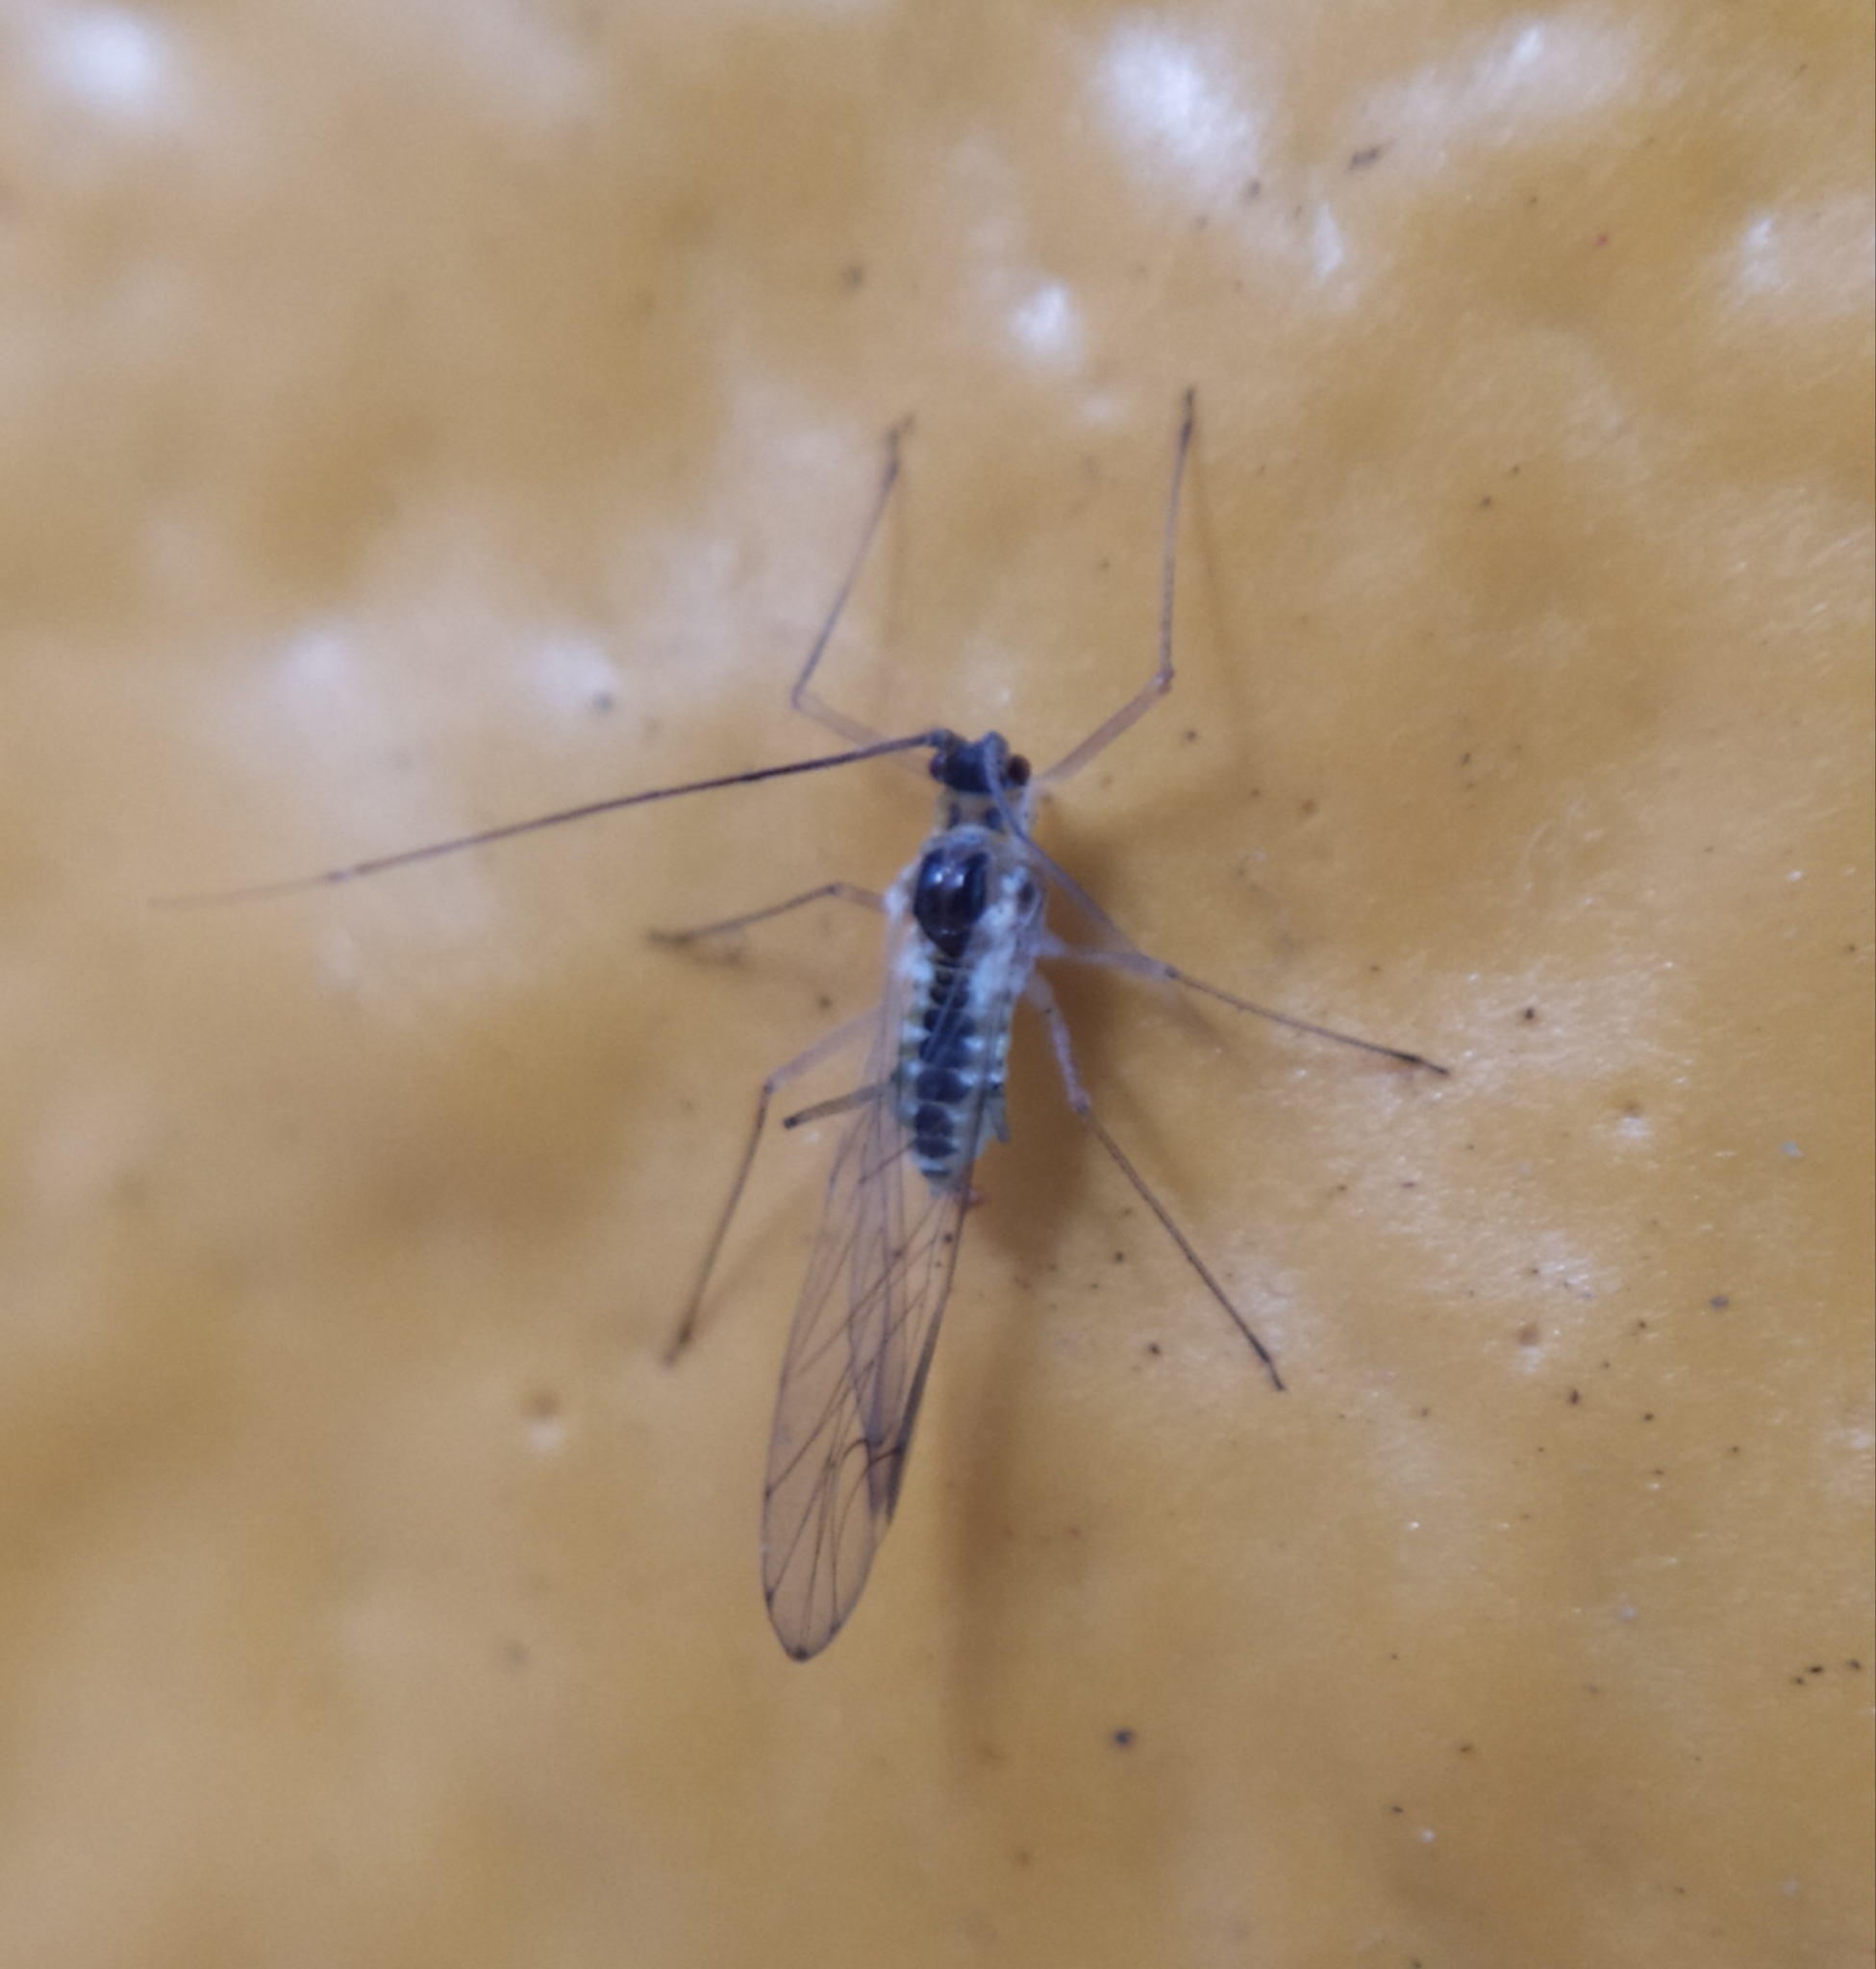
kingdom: Animalia
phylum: Arthropoda
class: Insecta
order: Hemiptera
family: Aphididae
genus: Drepanosiphum
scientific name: Drepanosiphum platanoidis
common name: Common sycamore aphid
